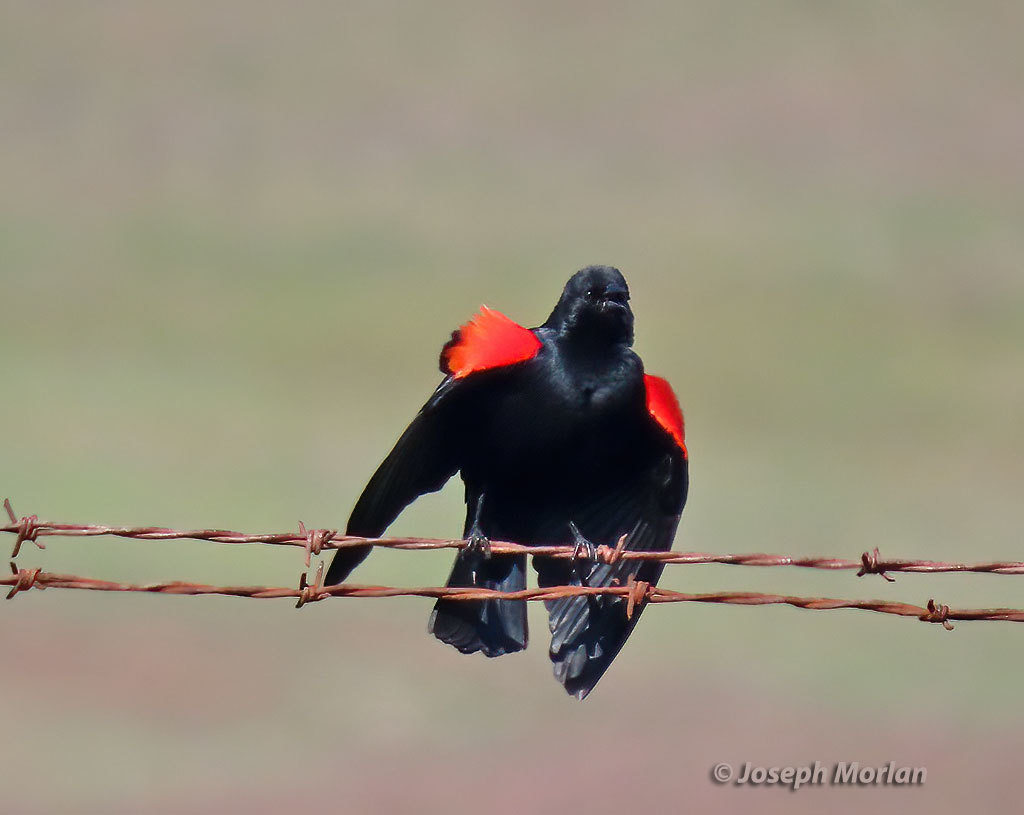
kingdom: Animalia
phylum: Chordata
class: Aves
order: Passeriformes
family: Icteridae
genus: Agelaius
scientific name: Agelaius phoeniceus
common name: Red-winged blackbird
